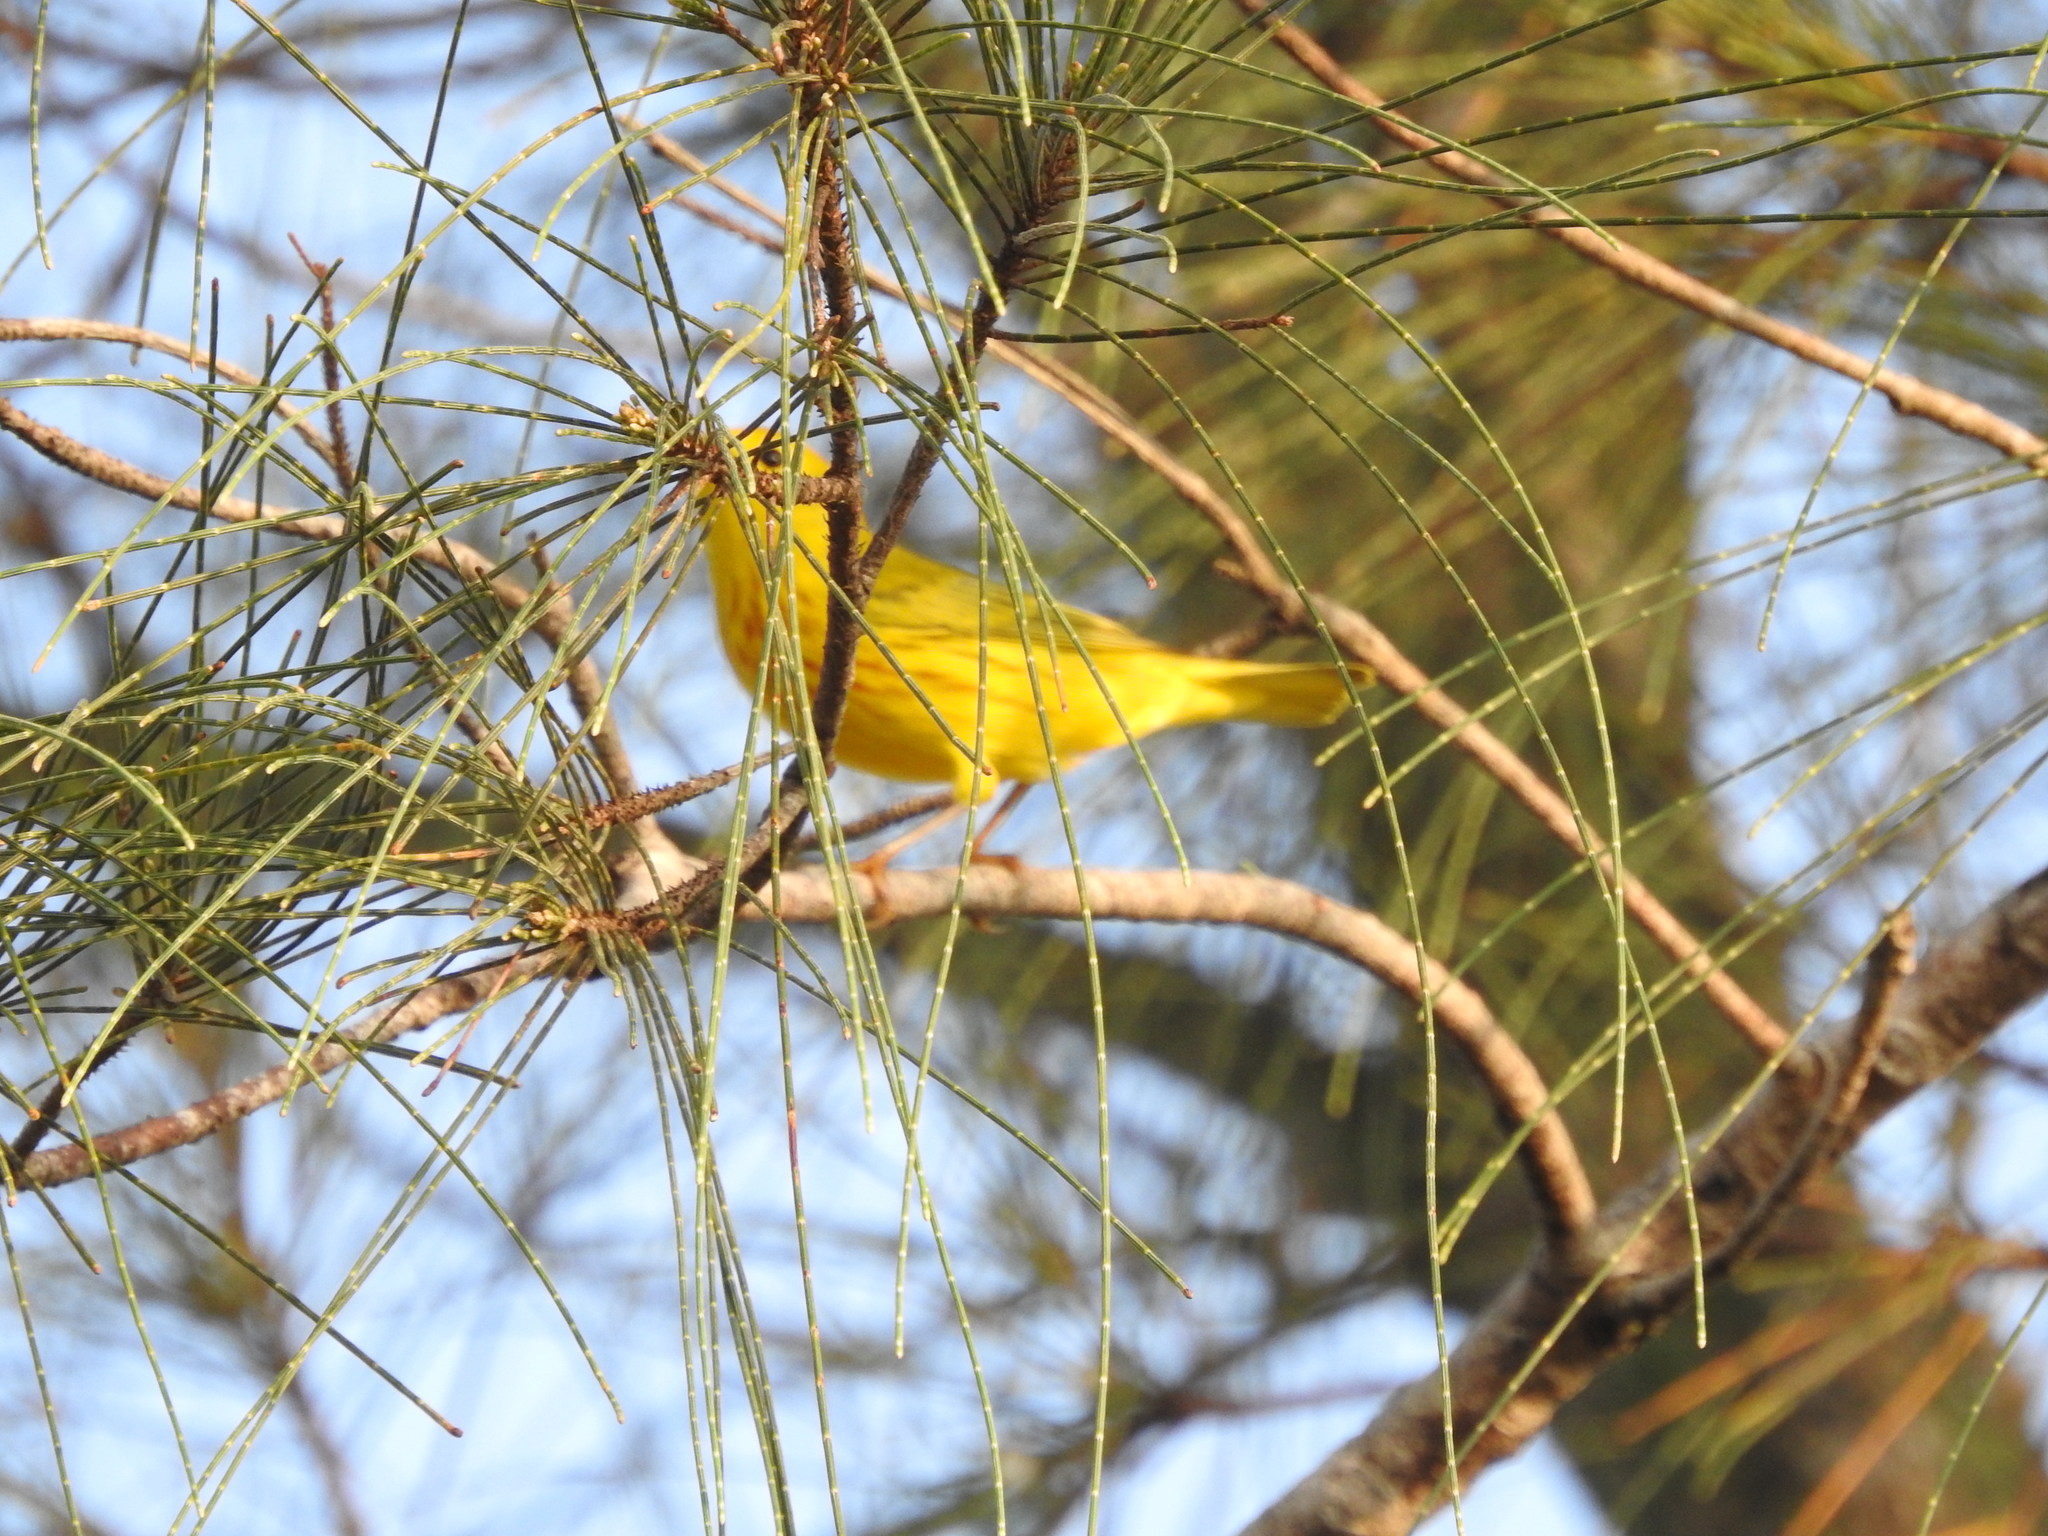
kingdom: Animalia
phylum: Chordata
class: Aves
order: Passeriformes
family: Parulidae
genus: Setophaga
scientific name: Setophaga petechia
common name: Yellow warbler
